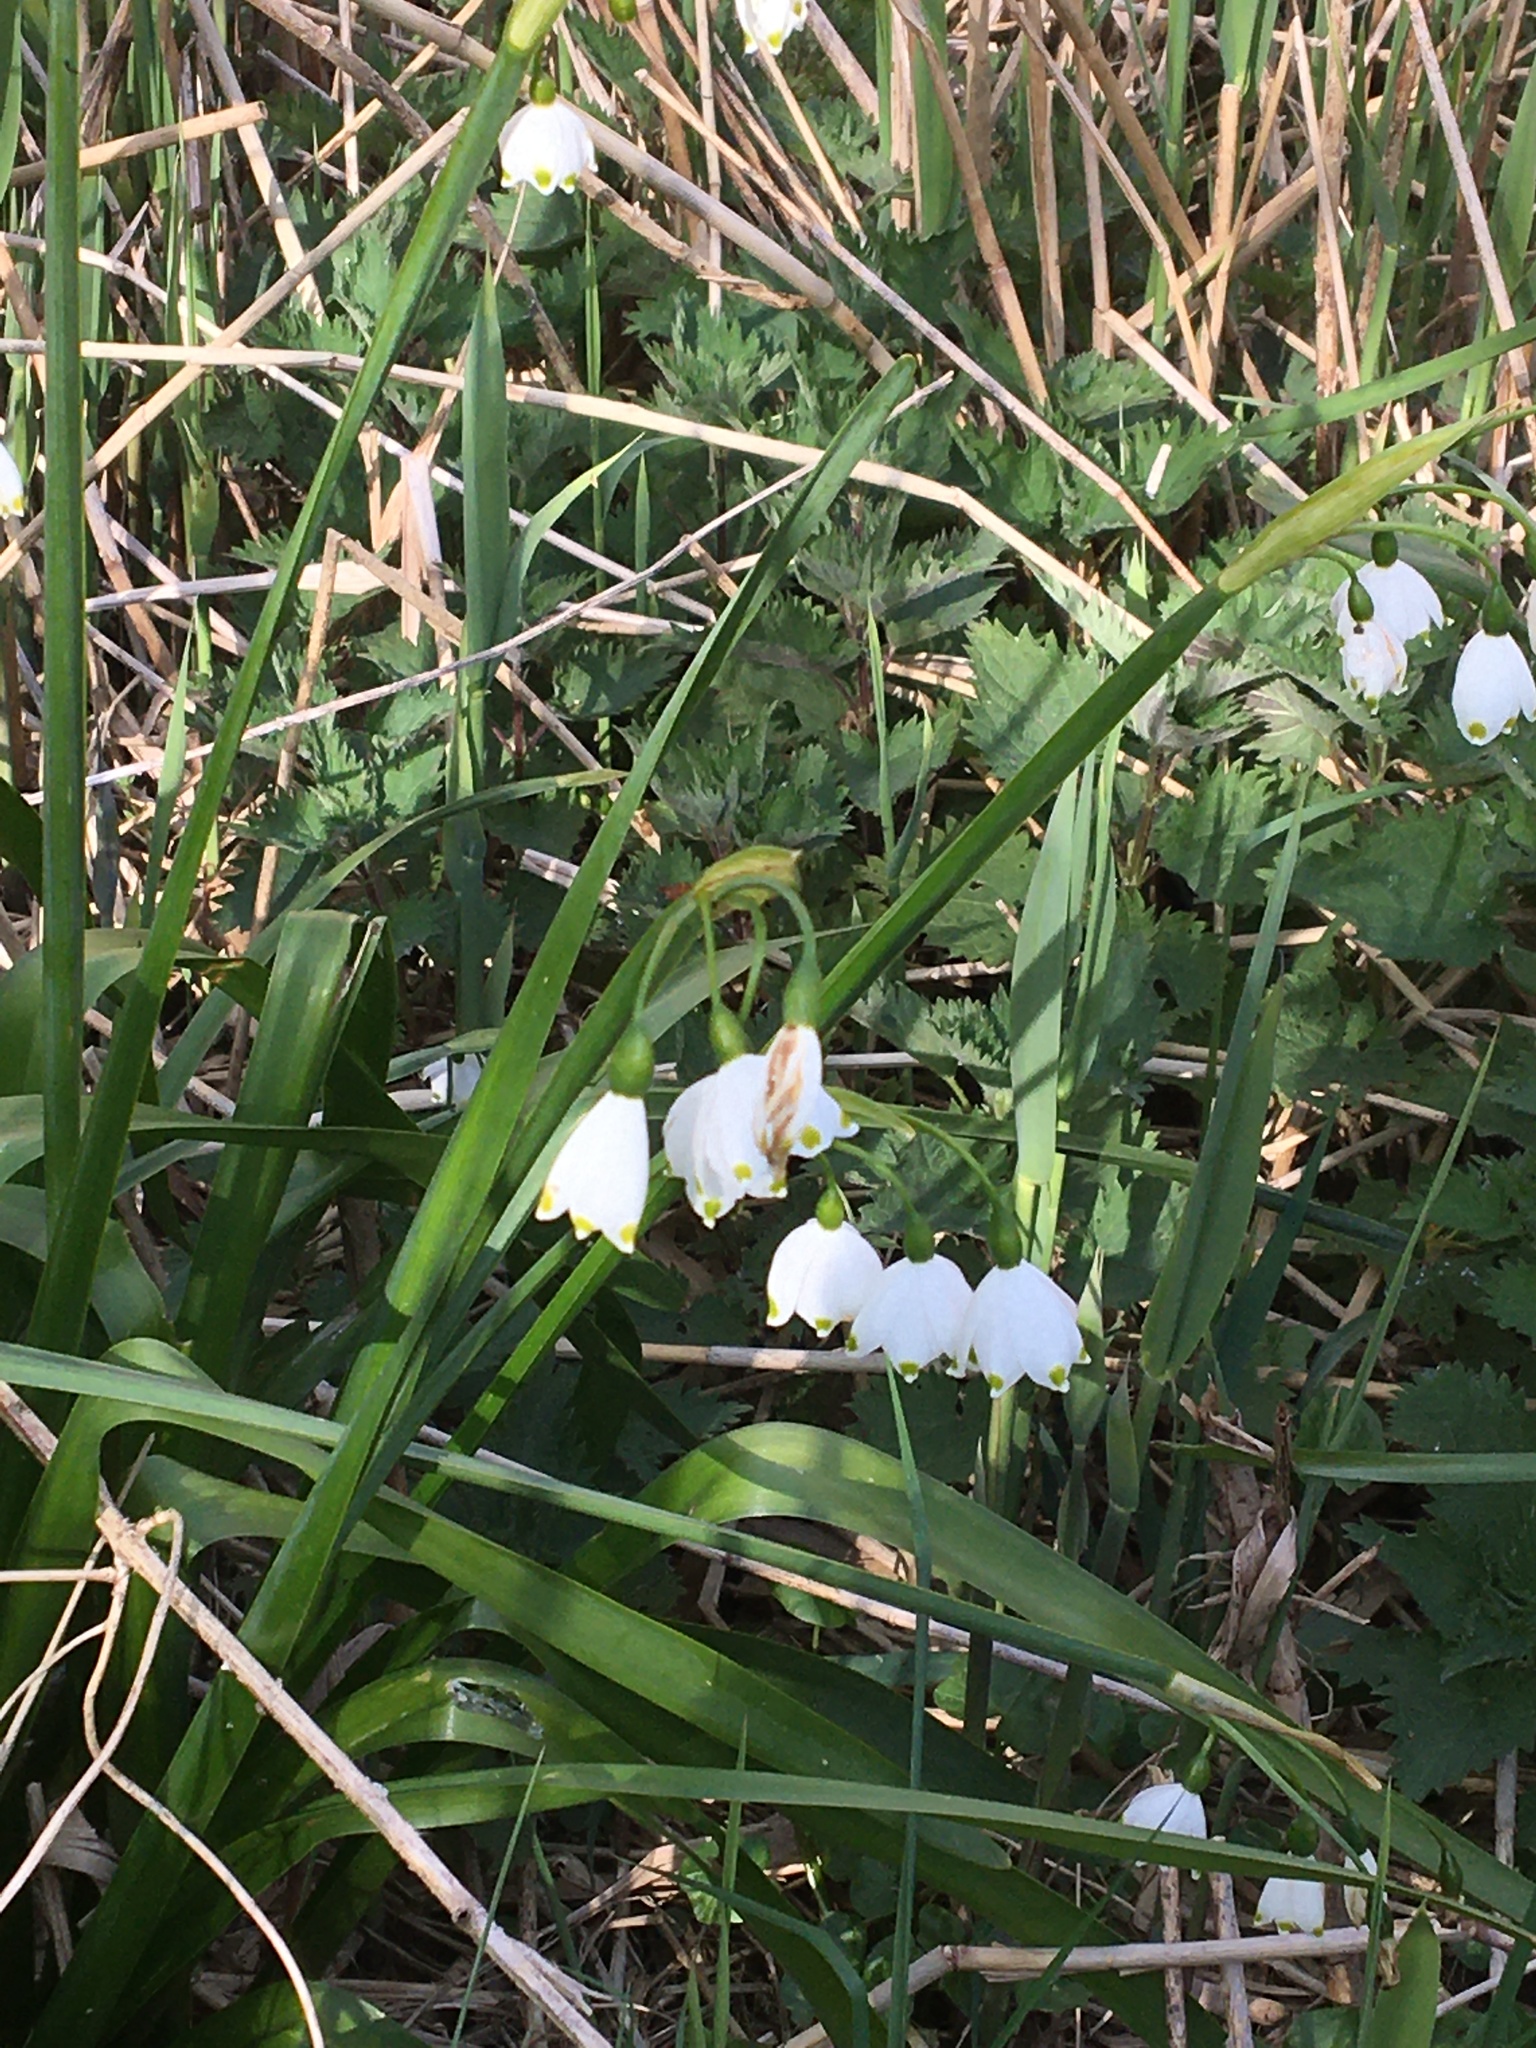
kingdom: Plantae
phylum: Tracheophyta
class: Liliopsida
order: Asparagales
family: Amaryllidaceae
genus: Leucojum
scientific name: Leucojum aestivum
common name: Summer snowflake
